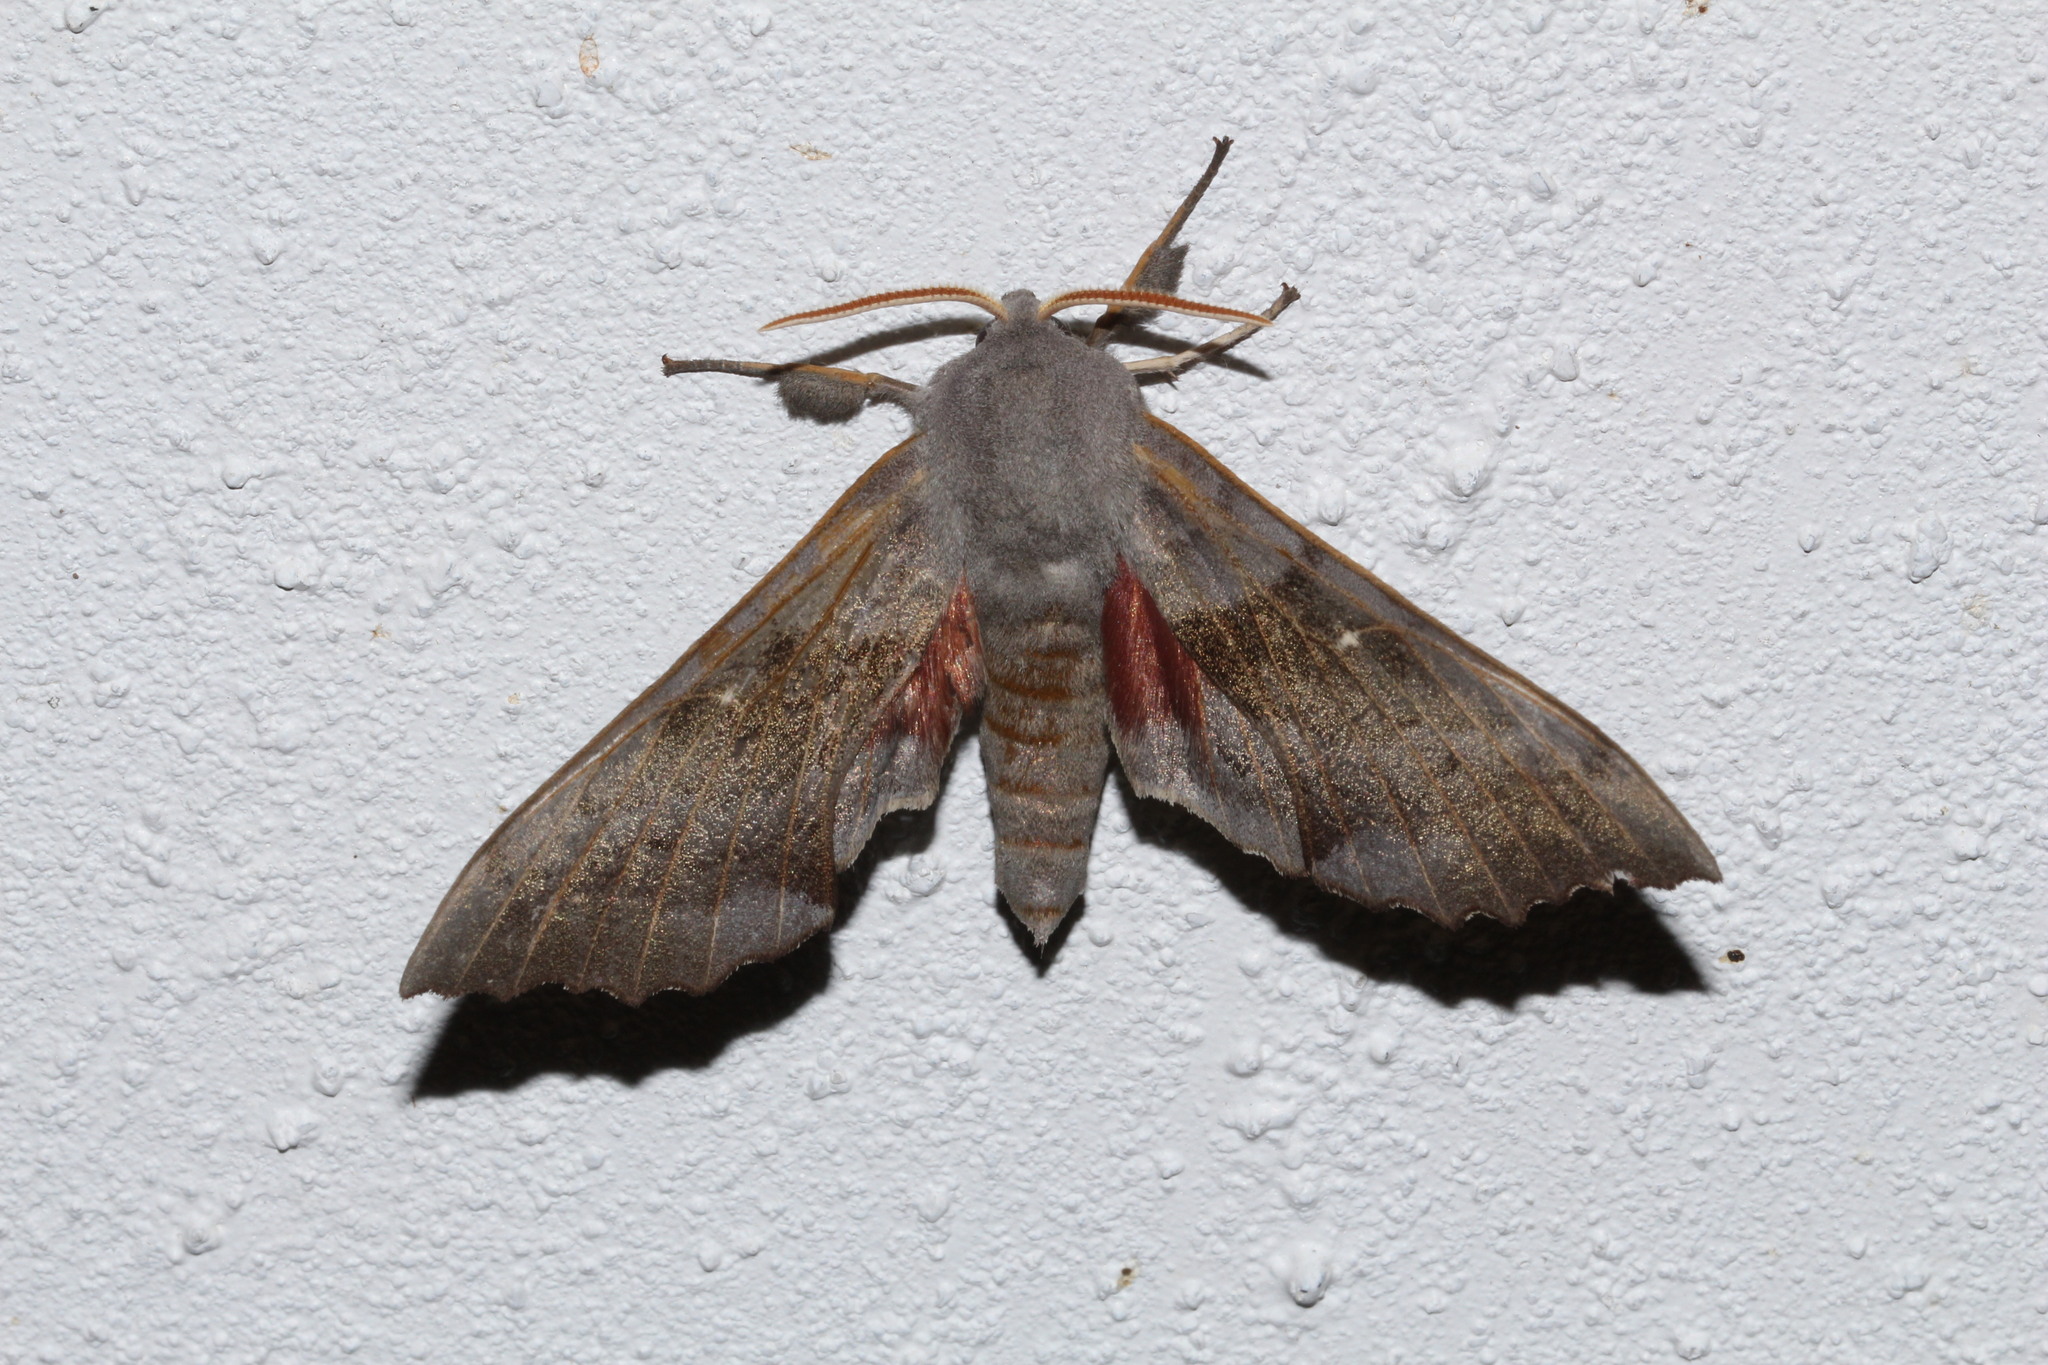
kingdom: Animalia
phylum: Arthropoda
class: Insecta
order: Lepidoptera
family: Sphingidae
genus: Laothoe
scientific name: Laothoe populi
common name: Poplar hawk-moth
